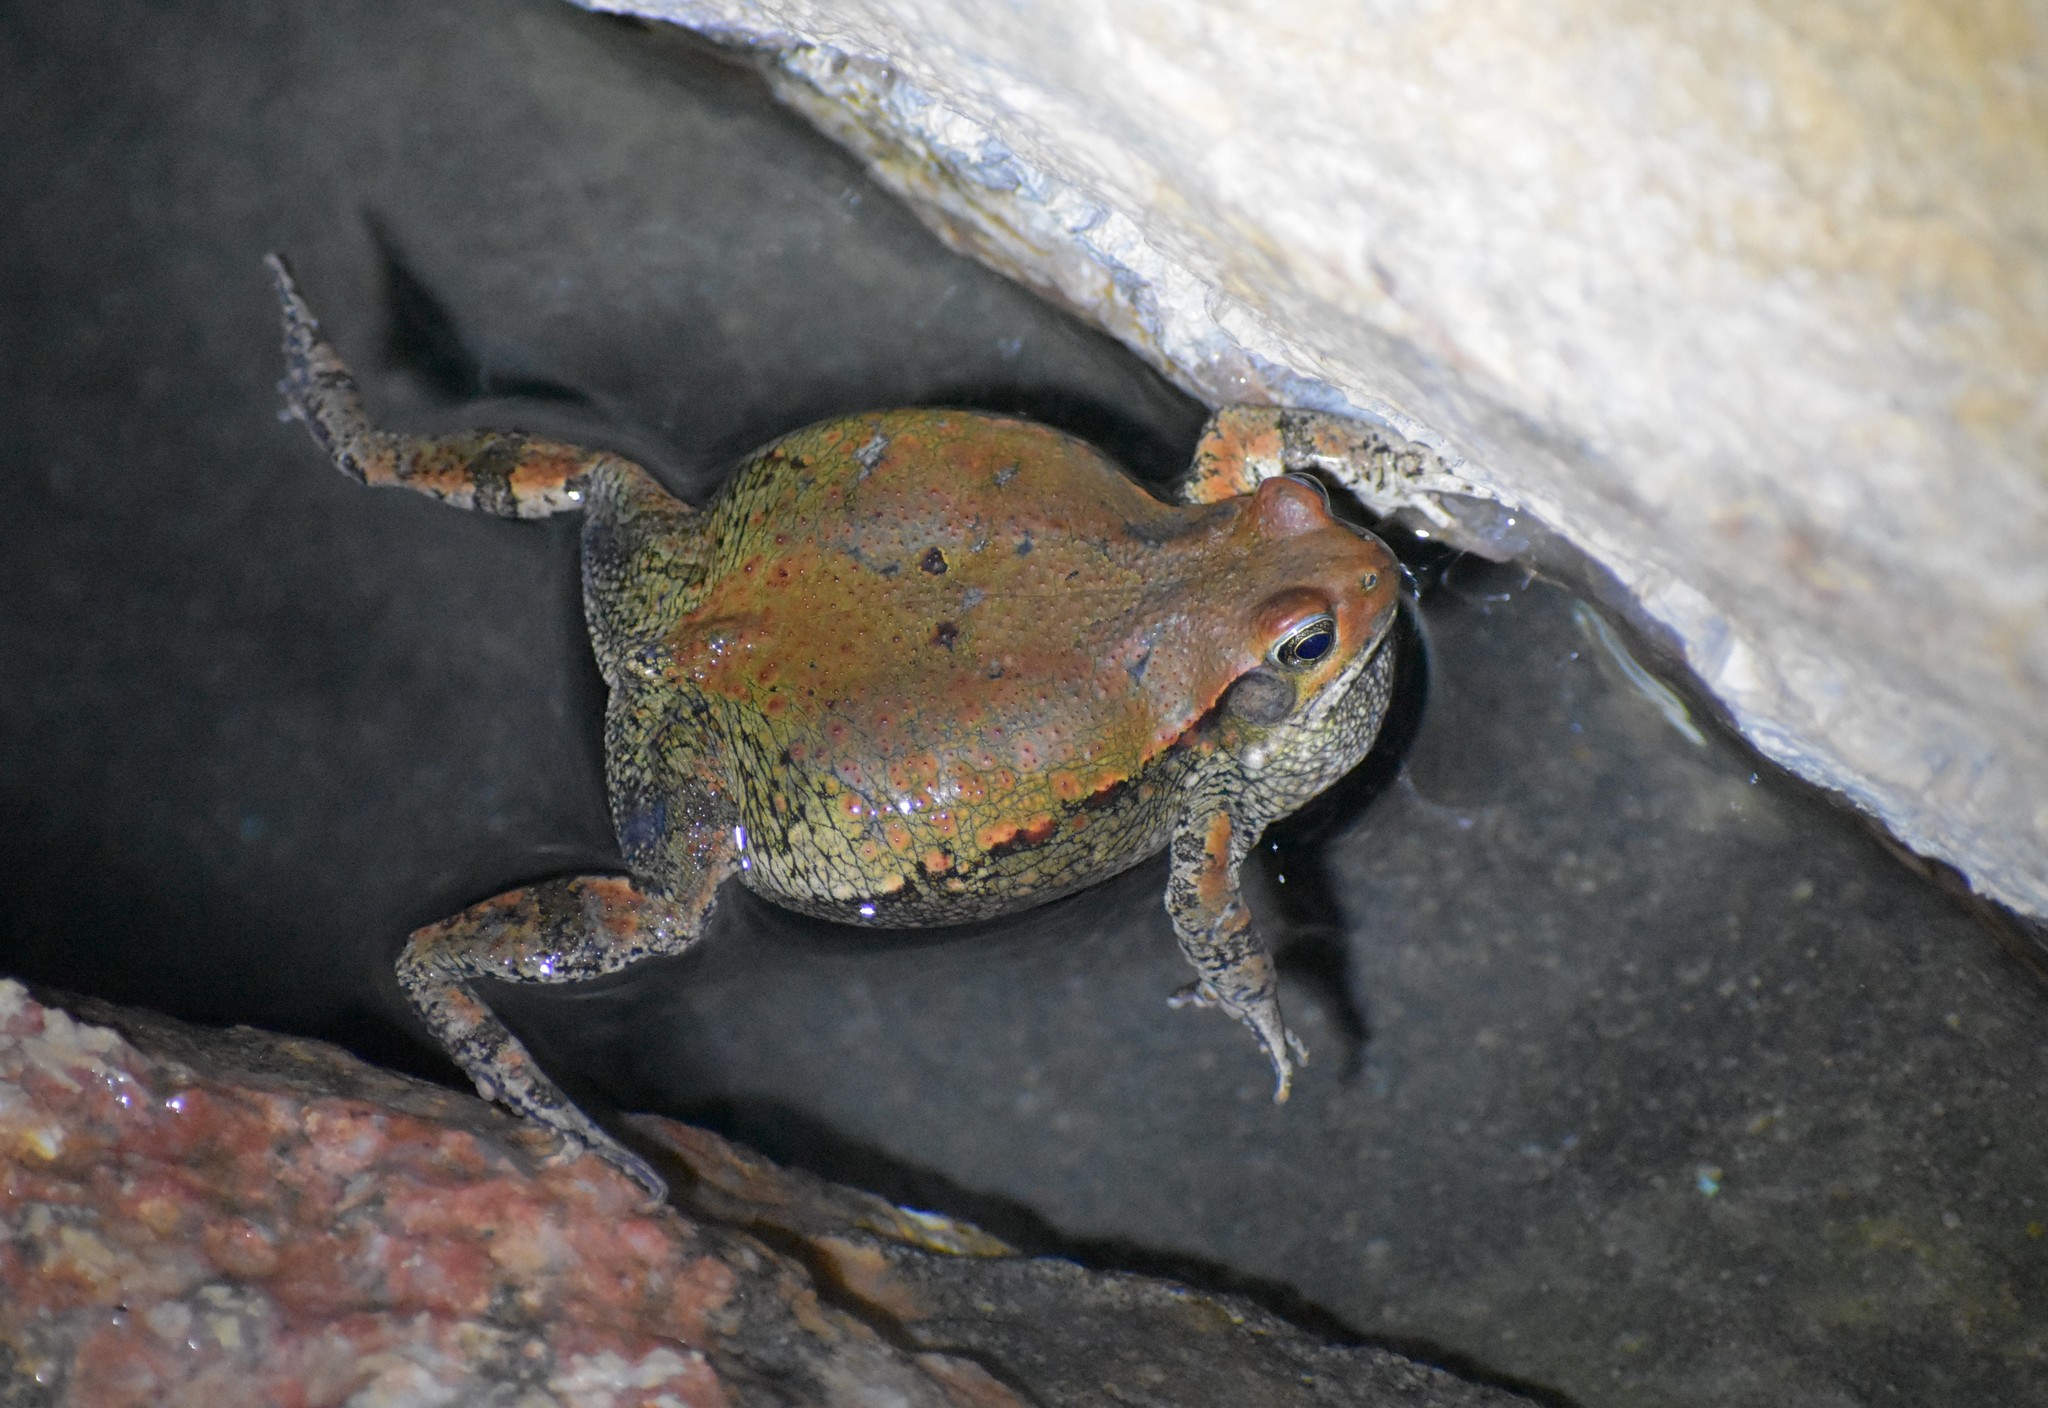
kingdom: Animalia
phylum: Chordata
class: Amphibia
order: Anura
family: Bufonidae
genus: Schismaderma
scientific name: Schismaderma carens
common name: African split-skin toad
